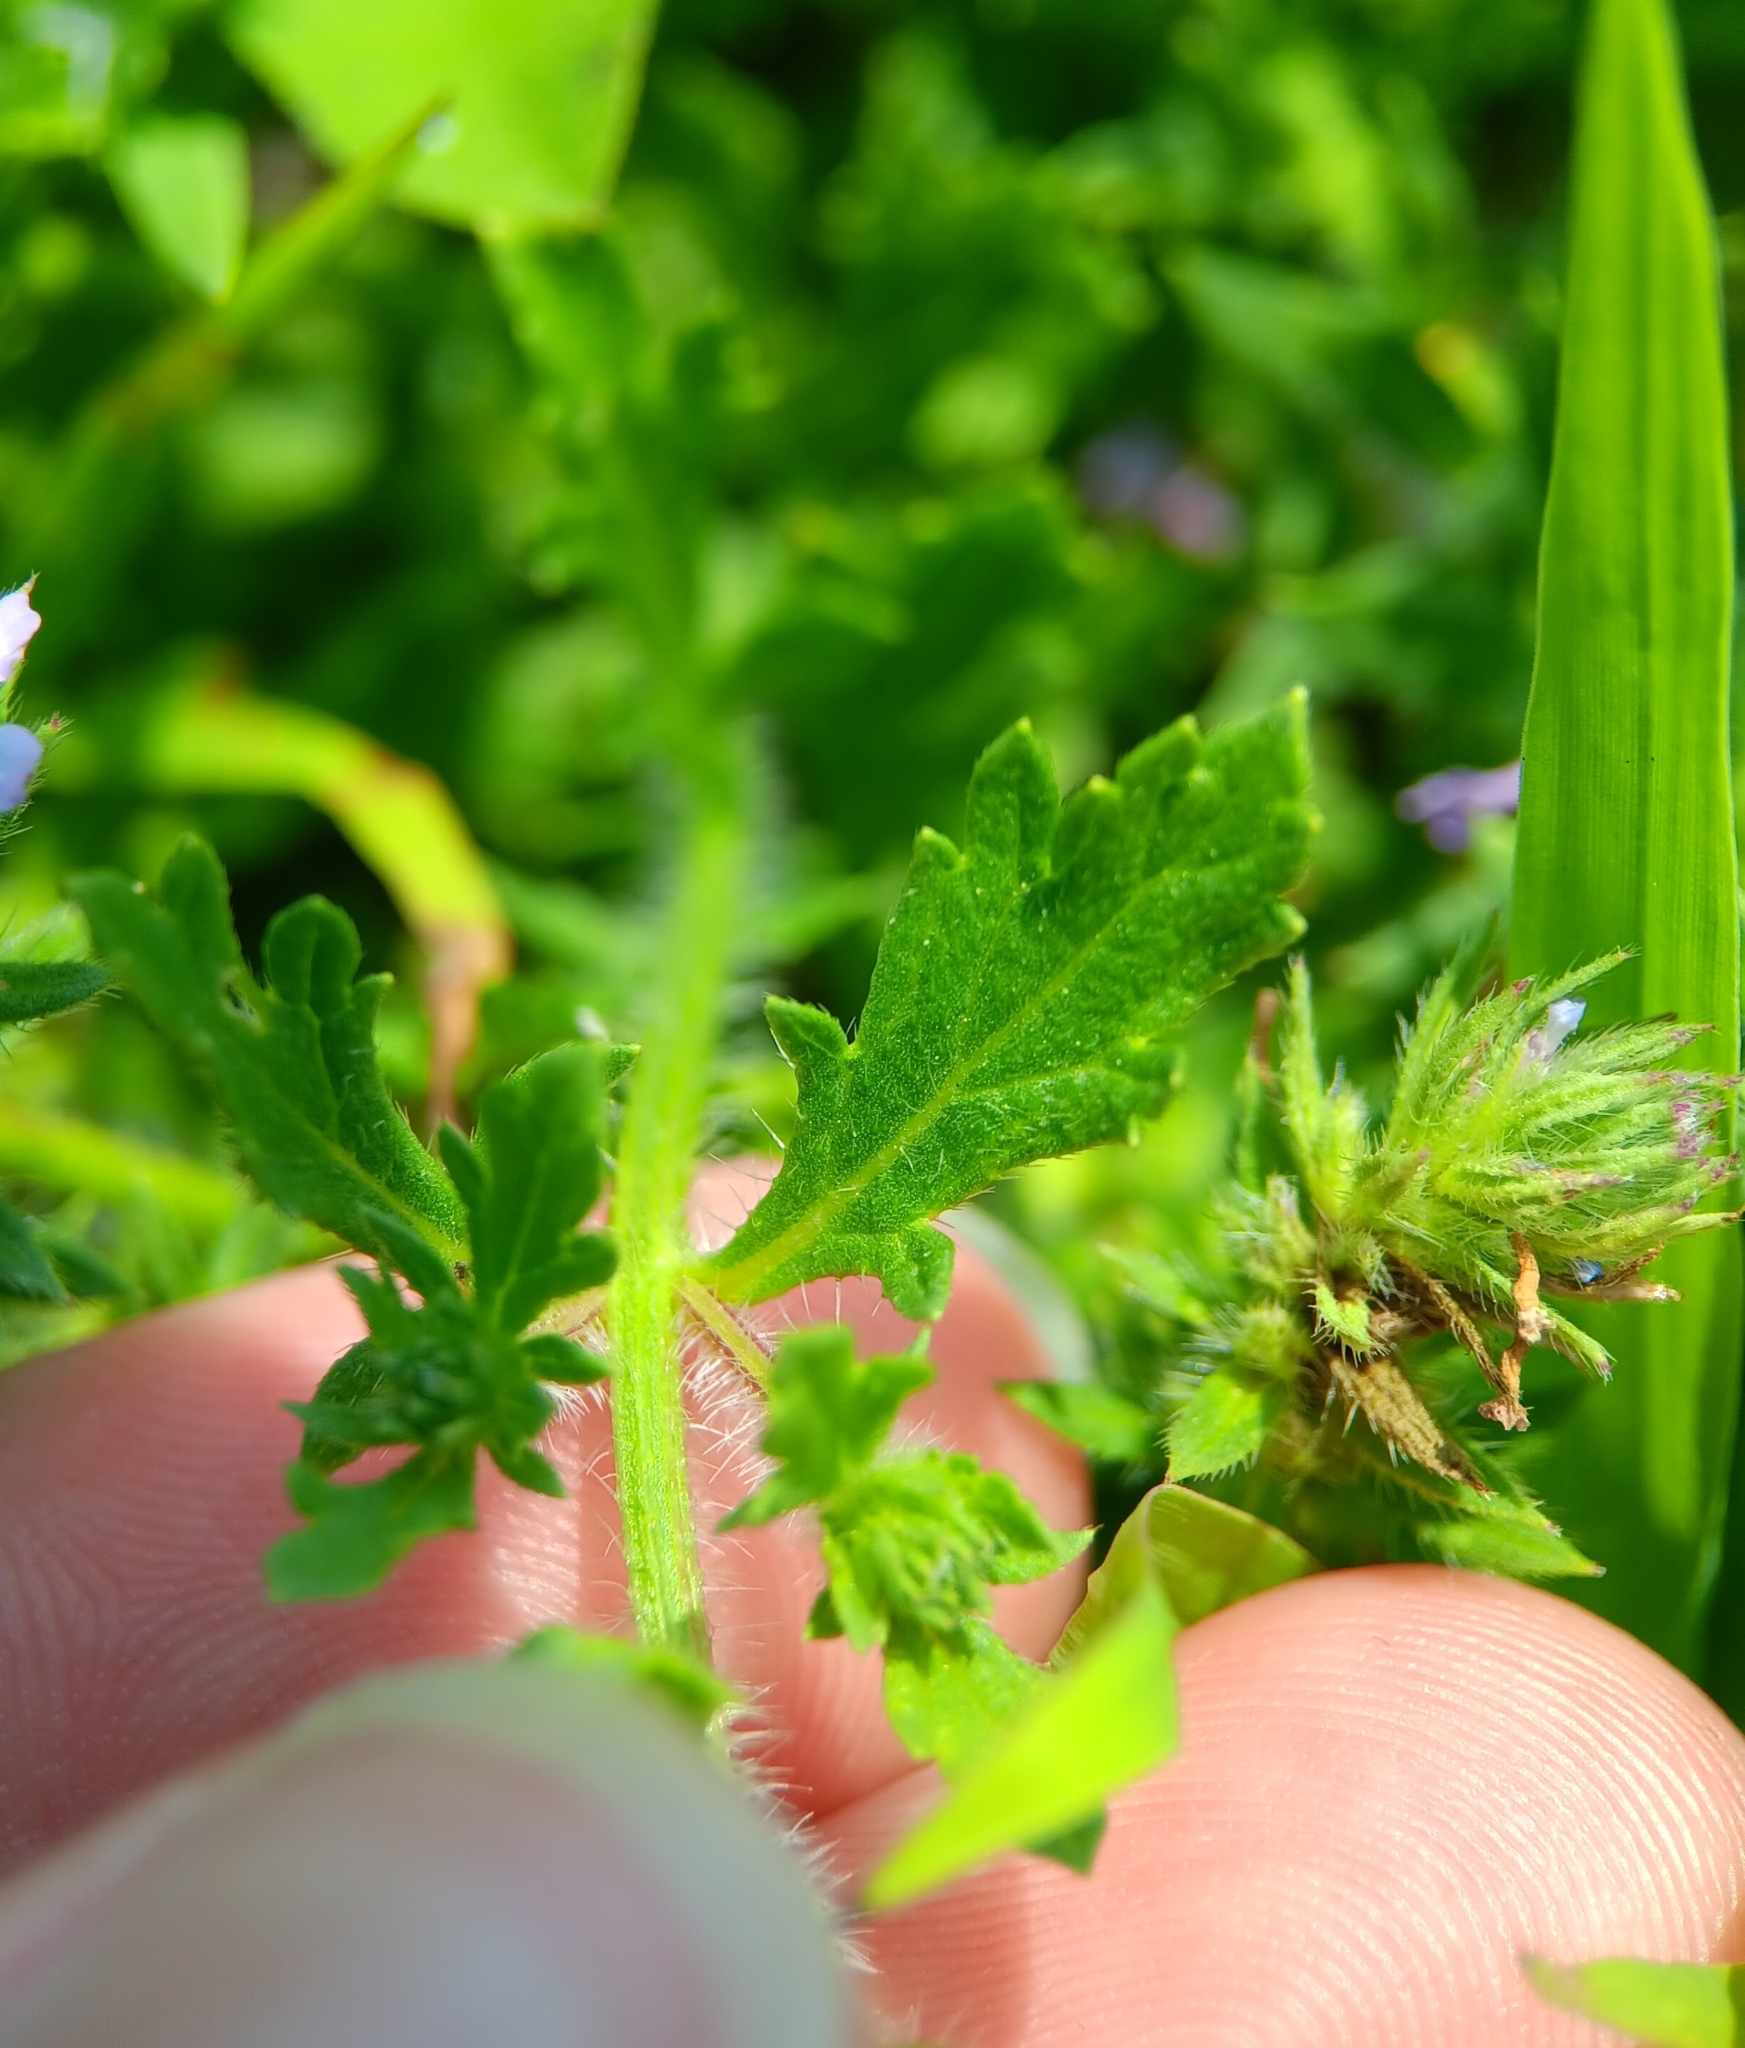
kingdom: Plantae
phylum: Tracheophyta
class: Magnoliopsida
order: Lamiales
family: Verbenaceae
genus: Verbena
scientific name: Verbena bracteata
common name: Bracted vervain
